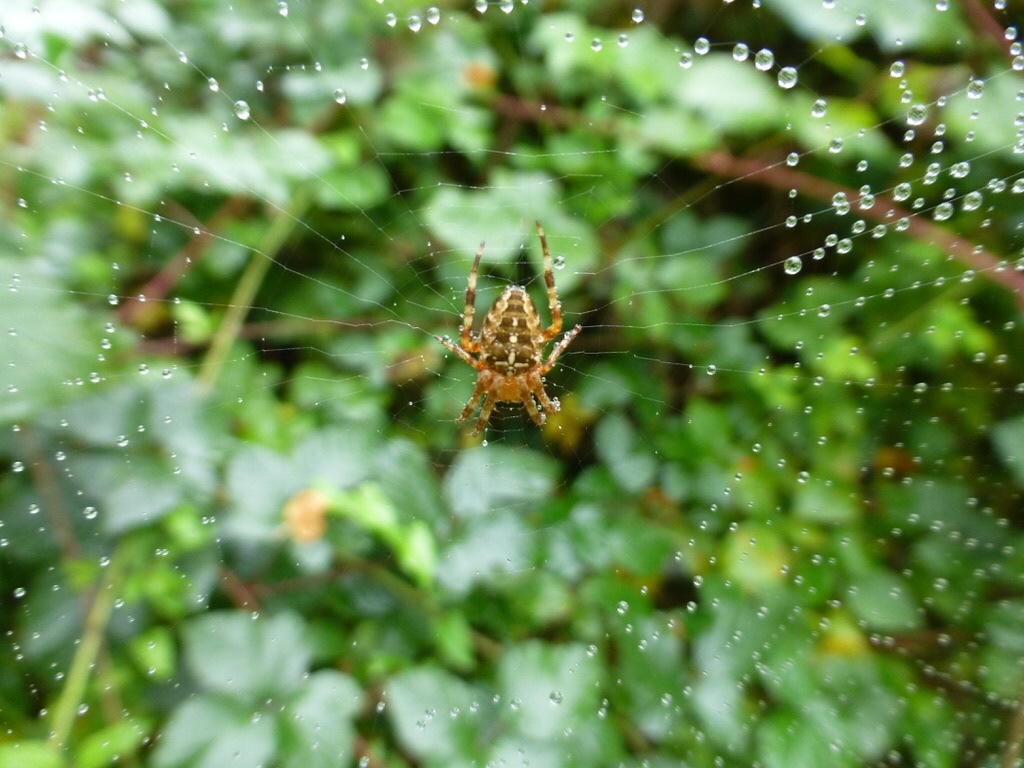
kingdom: Animalia
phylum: Arthropoda
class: Arachnida
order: Araneae
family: Araneidae
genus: Araneus
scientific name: Araneus diadematus
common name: Cross orbweaver
